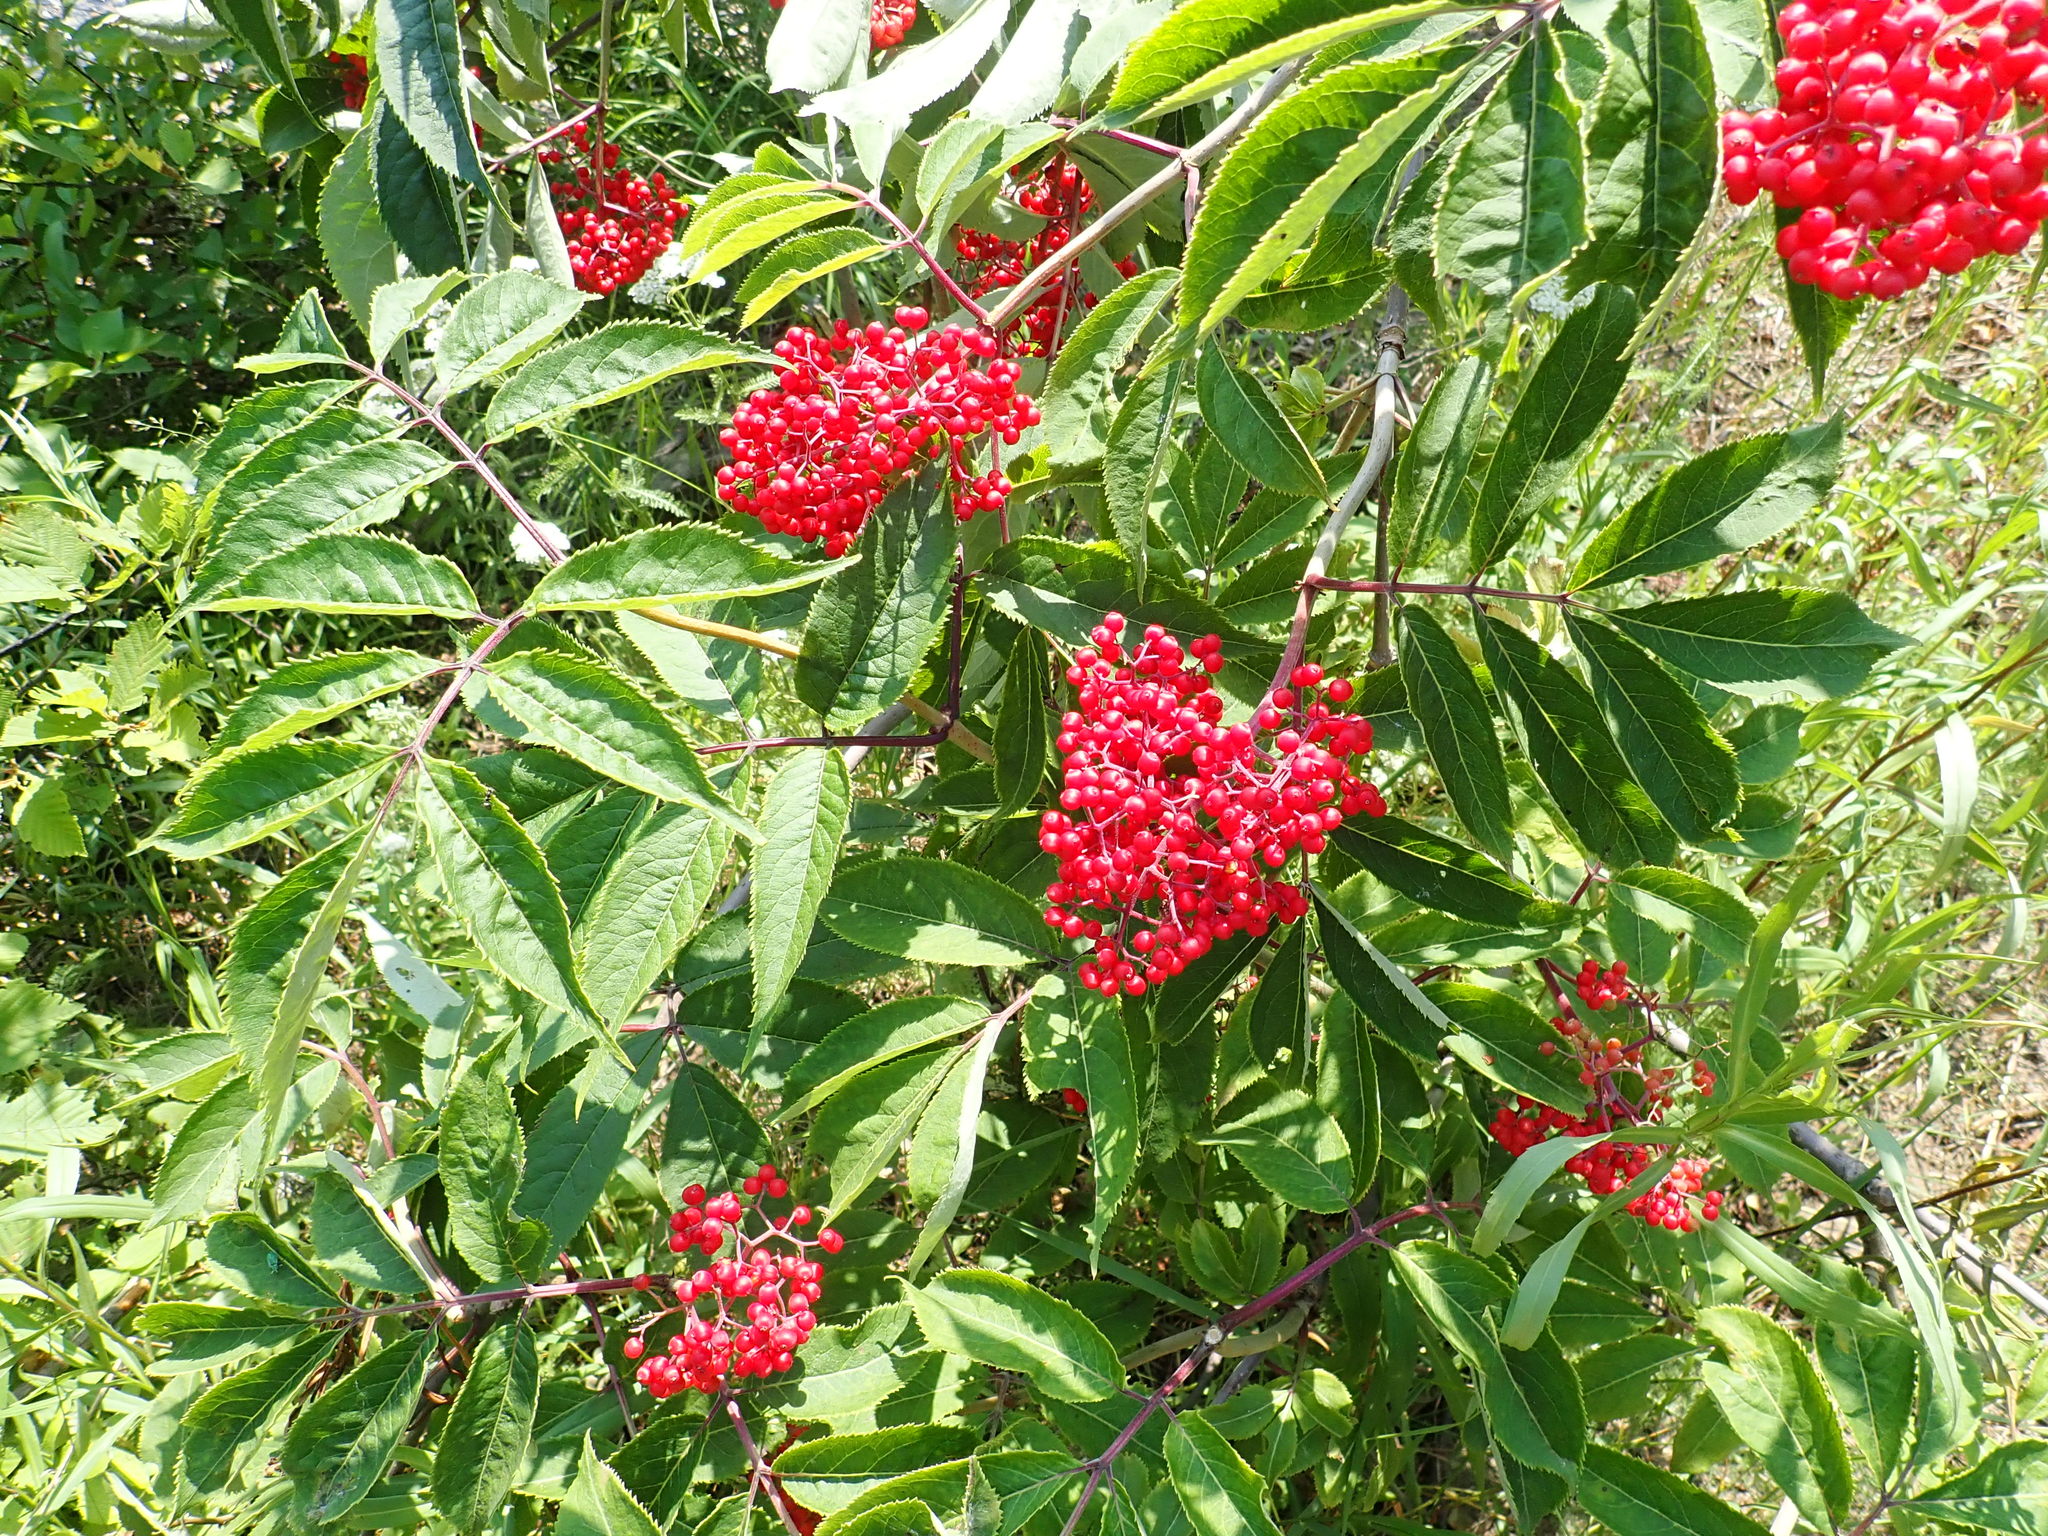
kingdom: Plantae
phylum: Tracheophyta
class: Magnoliopsida
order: Dipsacales
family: Viburnaceae
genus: Sambucus
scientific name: Sambucus racemosa
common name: Red-berried elder
